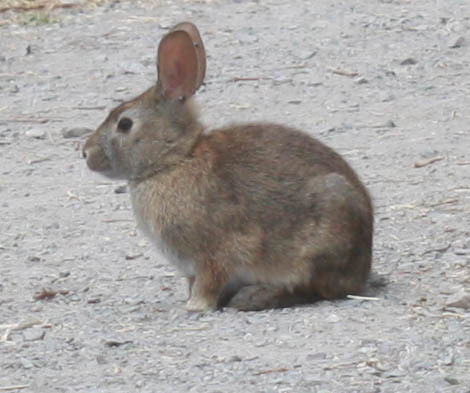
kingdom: Animalia
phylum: Chordata
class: Mammalia
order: Lagomorpha
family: Leporidae
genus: Sylvilagus
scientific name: Sylvilagus bachmani
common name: Brush rabbit
